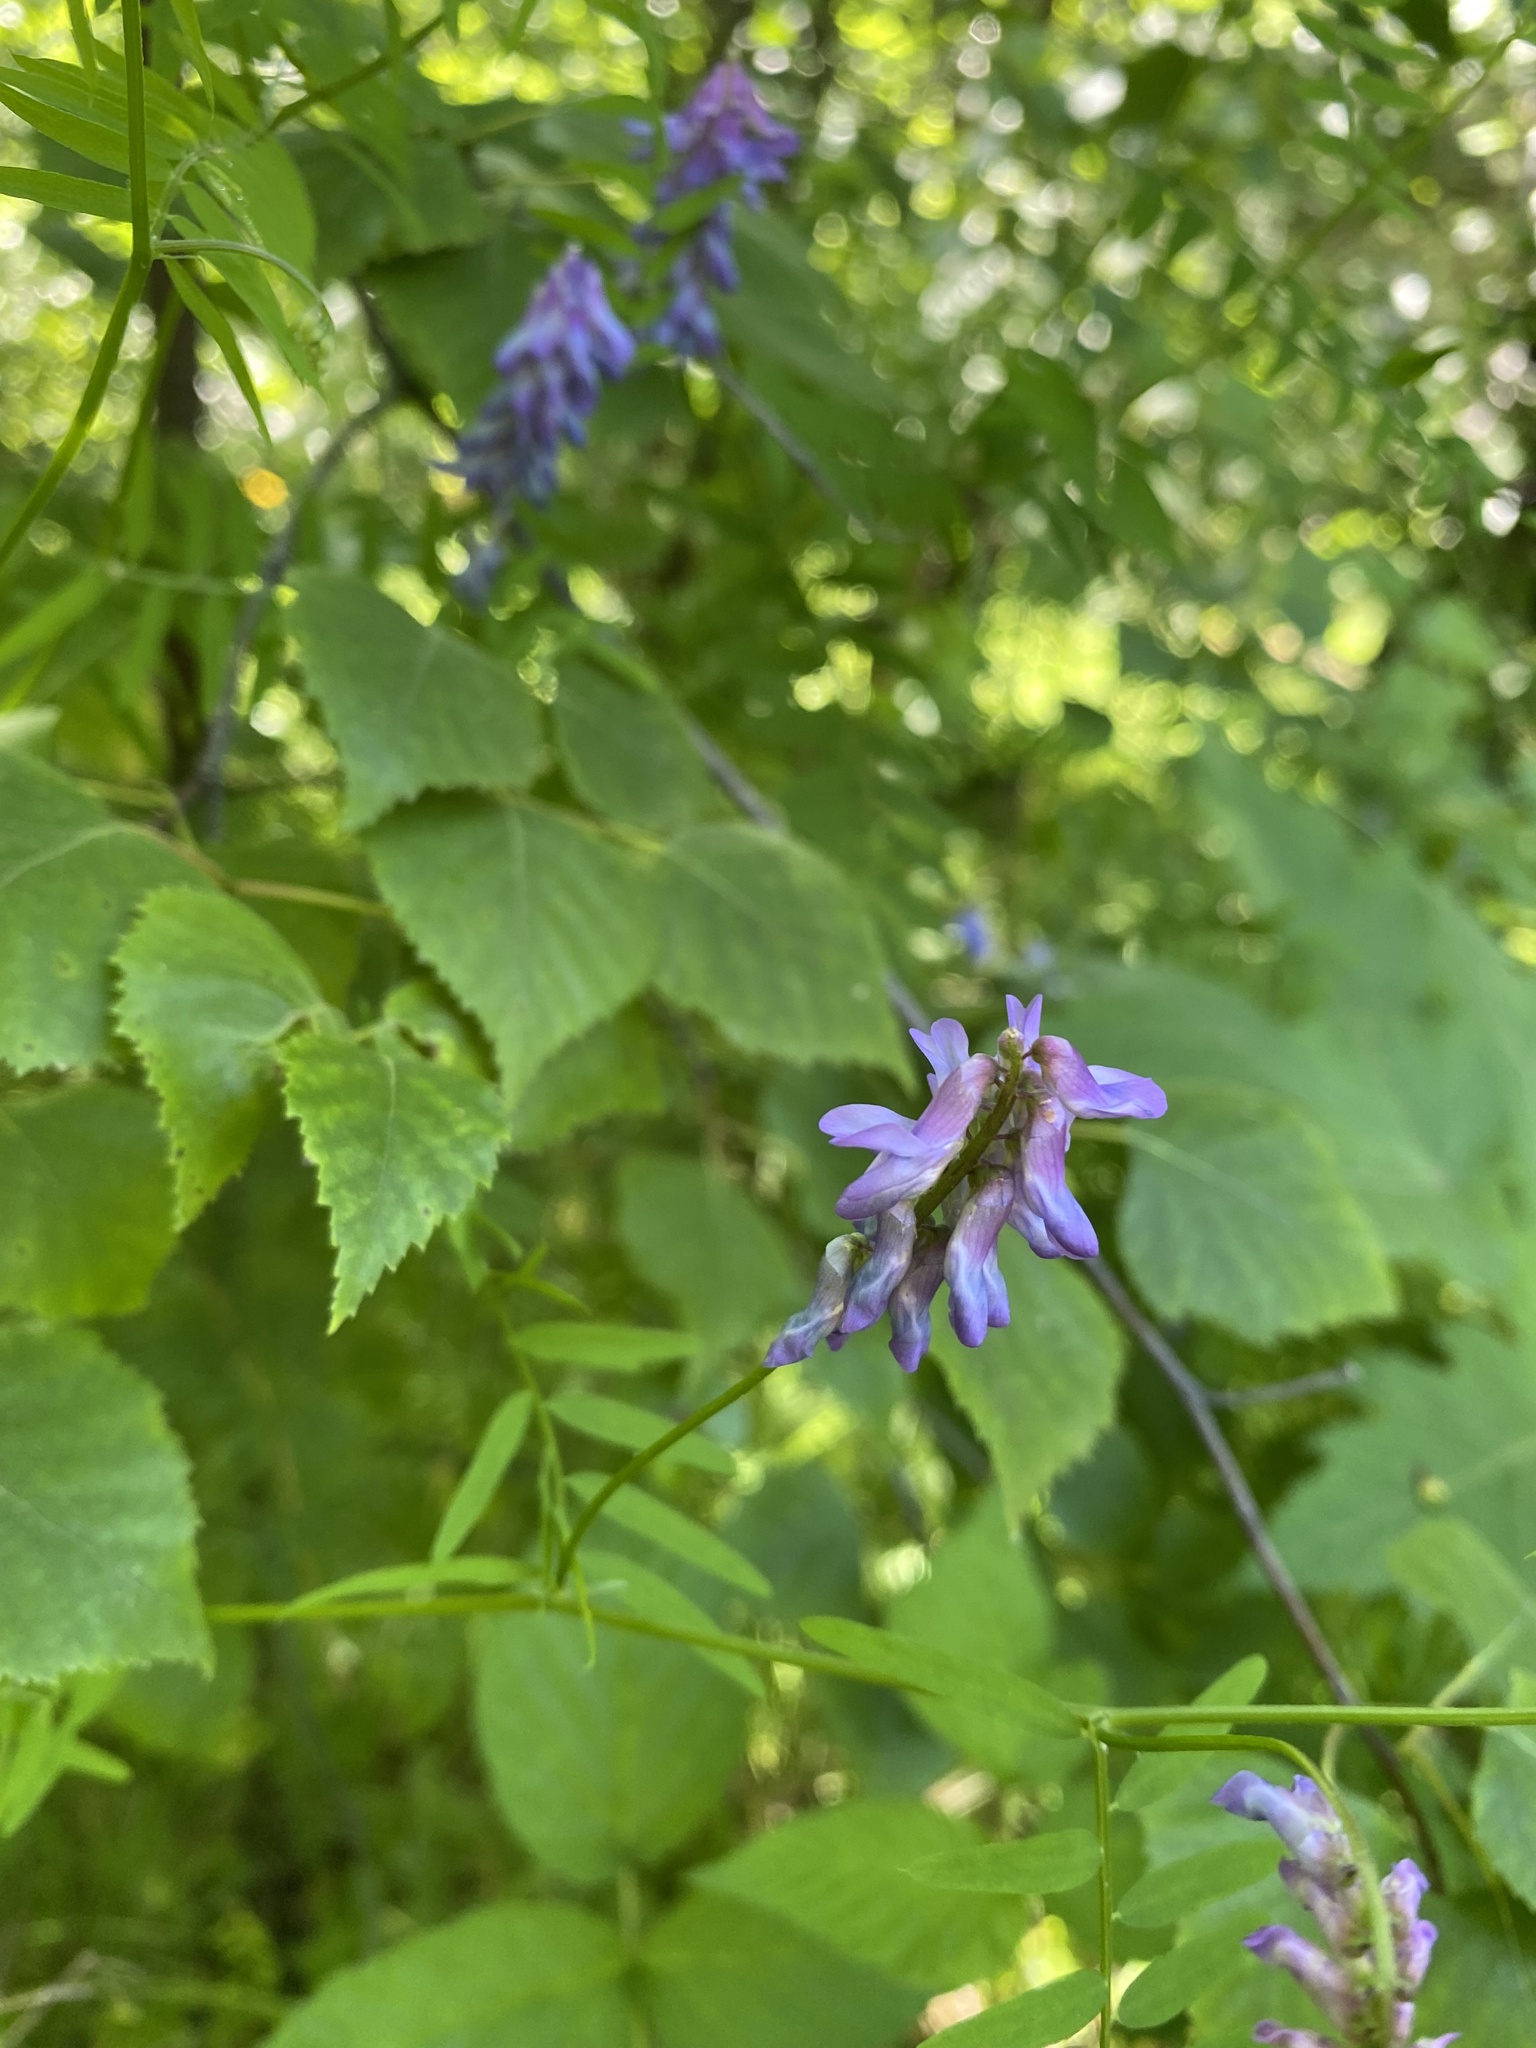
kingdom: Plantae
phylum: Tracheophyta
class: Magnoliopsida
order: Fabales
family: Fabaceae
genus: Vicia
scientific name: Vicia cracca
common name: Bird vetch
